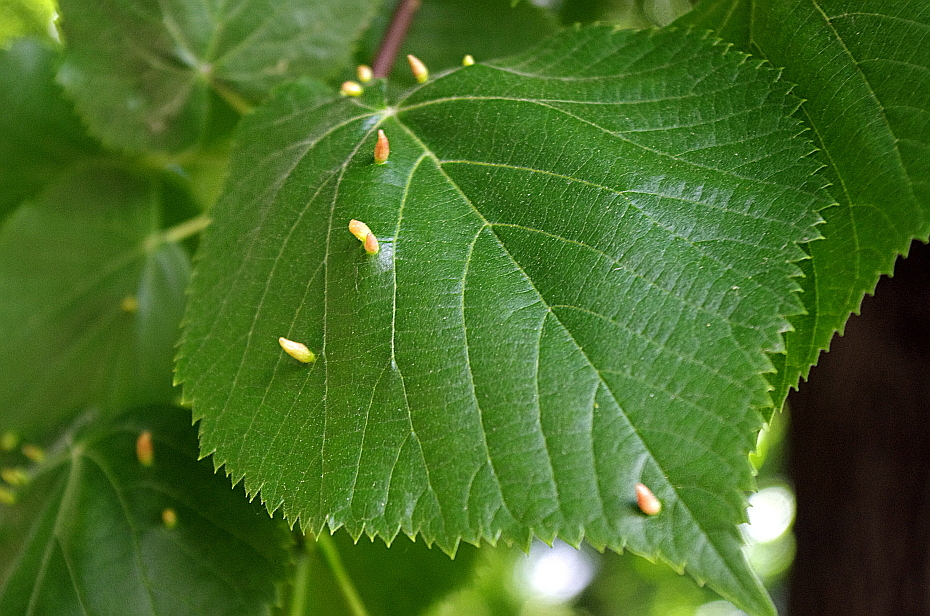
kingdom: Animalia
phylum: Arthropoda
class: Arachnida
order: Trombidiformes
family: Eriophyidae
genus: Eriophyes
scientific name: Eriophyes tiliae
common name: Red nail gall mite
